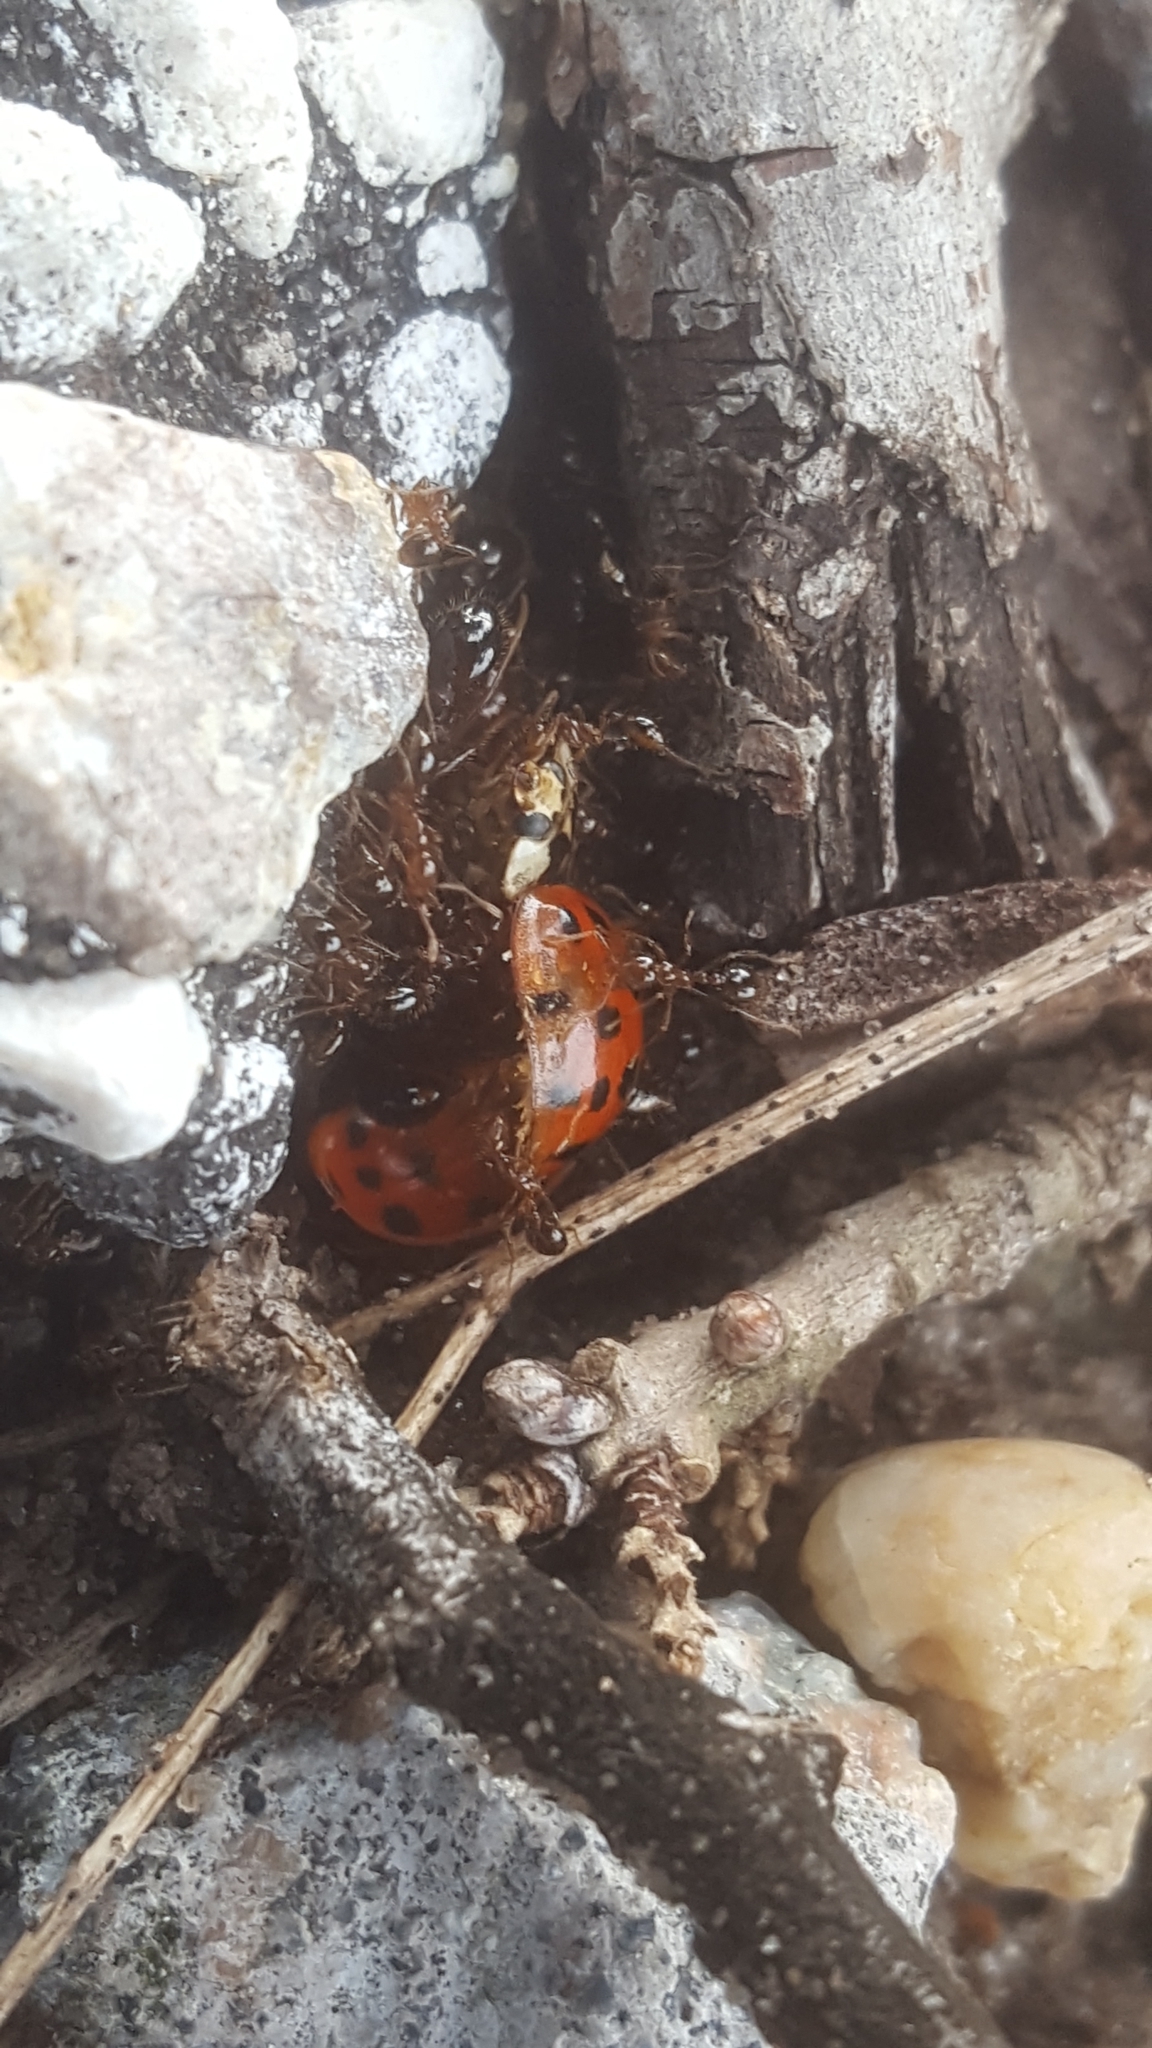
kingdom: Animalia
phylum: Arthropoda
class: Insecta
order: Hymenoptera
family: Formicidae
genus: Solenopsis
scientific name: Solenopsis invicta
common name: Red imported fire ant
